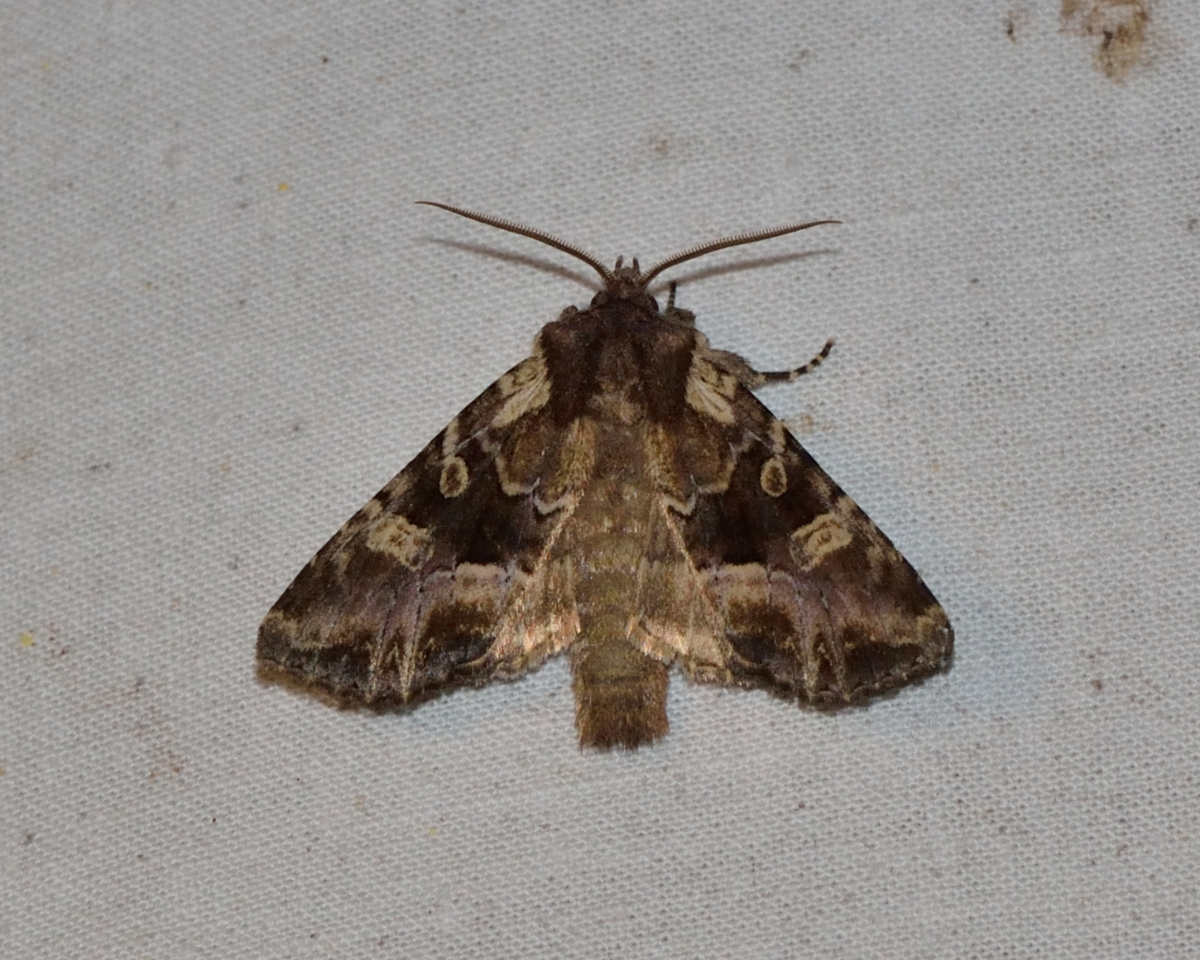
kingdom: Animalia
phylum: Arthropoda
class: Insecta
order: Lepidoptera
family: Noctuidae
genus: Blepharita
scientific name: Blepharita amica
